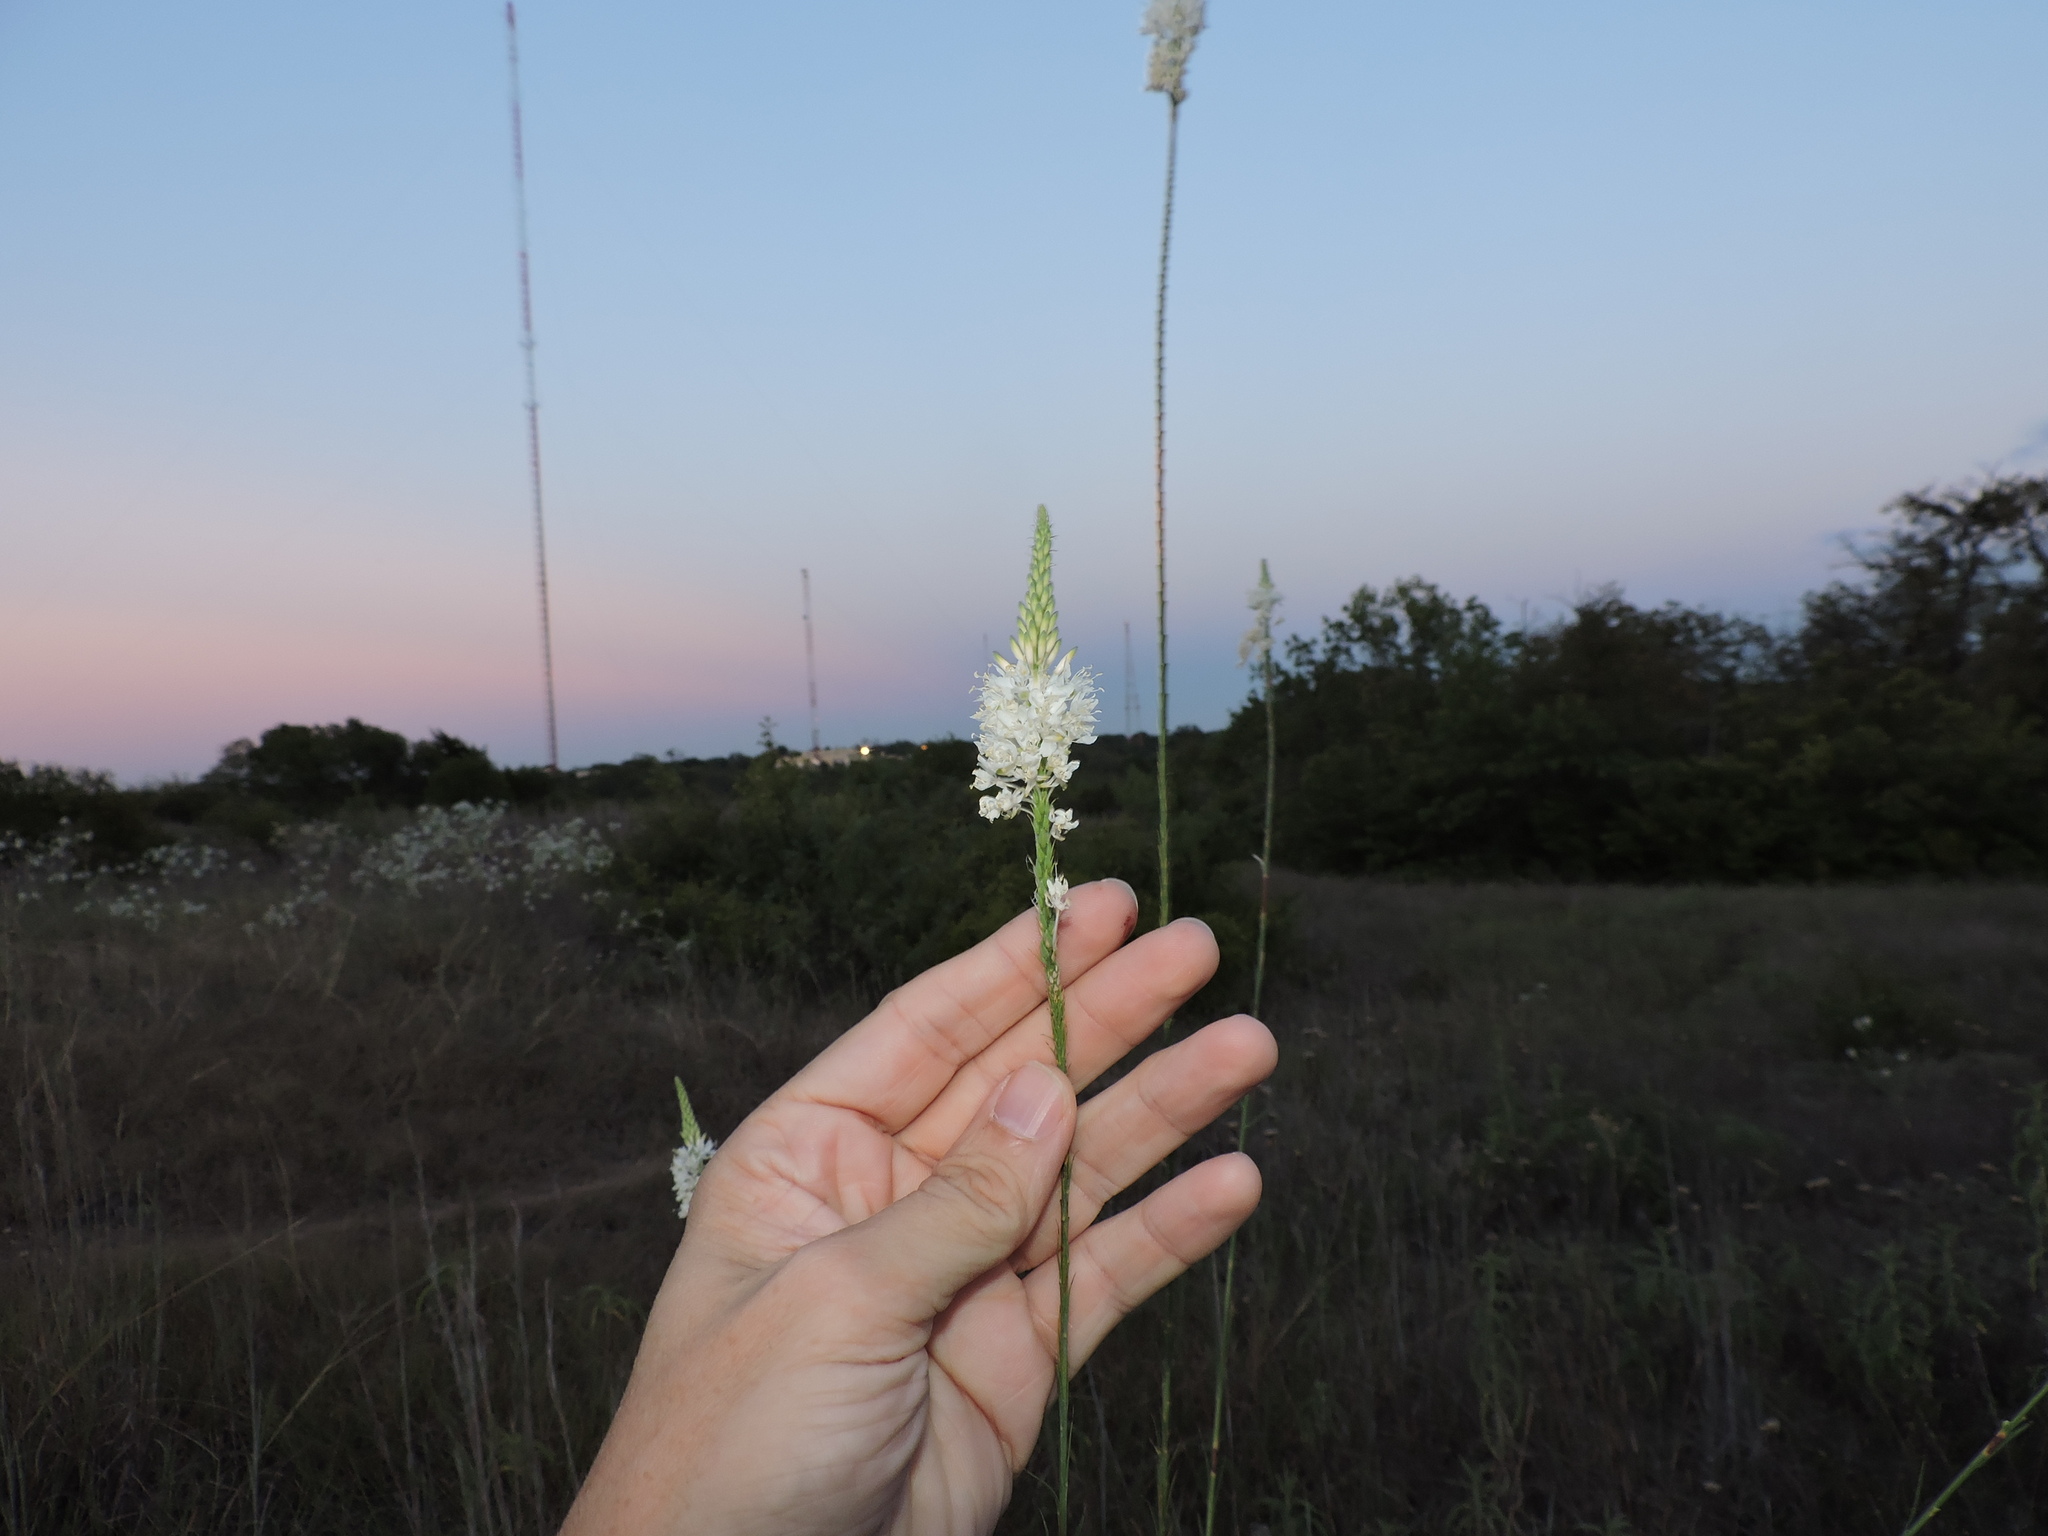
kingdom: Plantae
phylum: Tracheophyta
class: Magnoliopsida
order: Myrtales
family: Onagraceae
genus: Oenothera
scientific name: Oenothera glaucifolia
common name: False gaura
